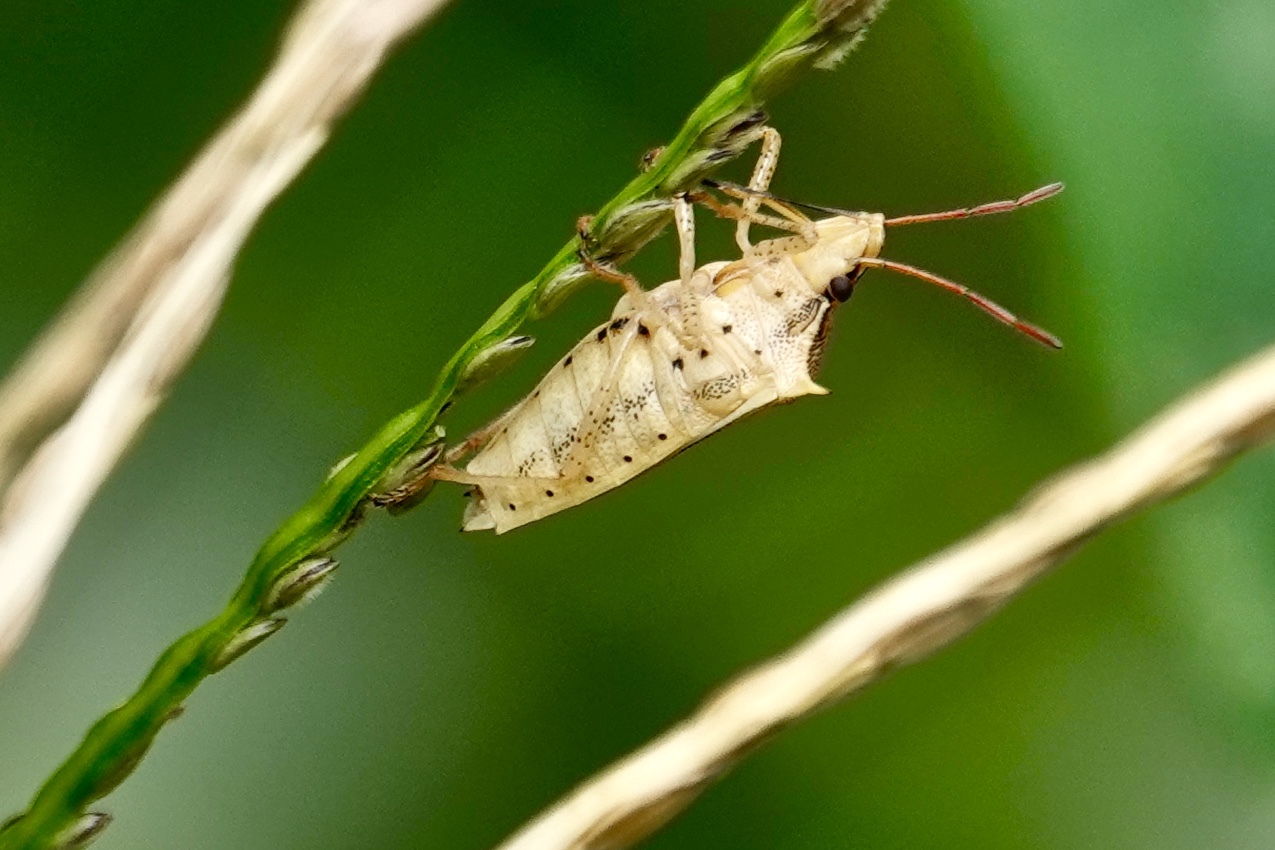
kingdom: Animalia
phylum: Arthropoda
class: Insecta
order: Hemiptera
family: Pentatomidae
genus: Oebalus
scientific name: Oebalus pugnax
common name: Rice stink bug
